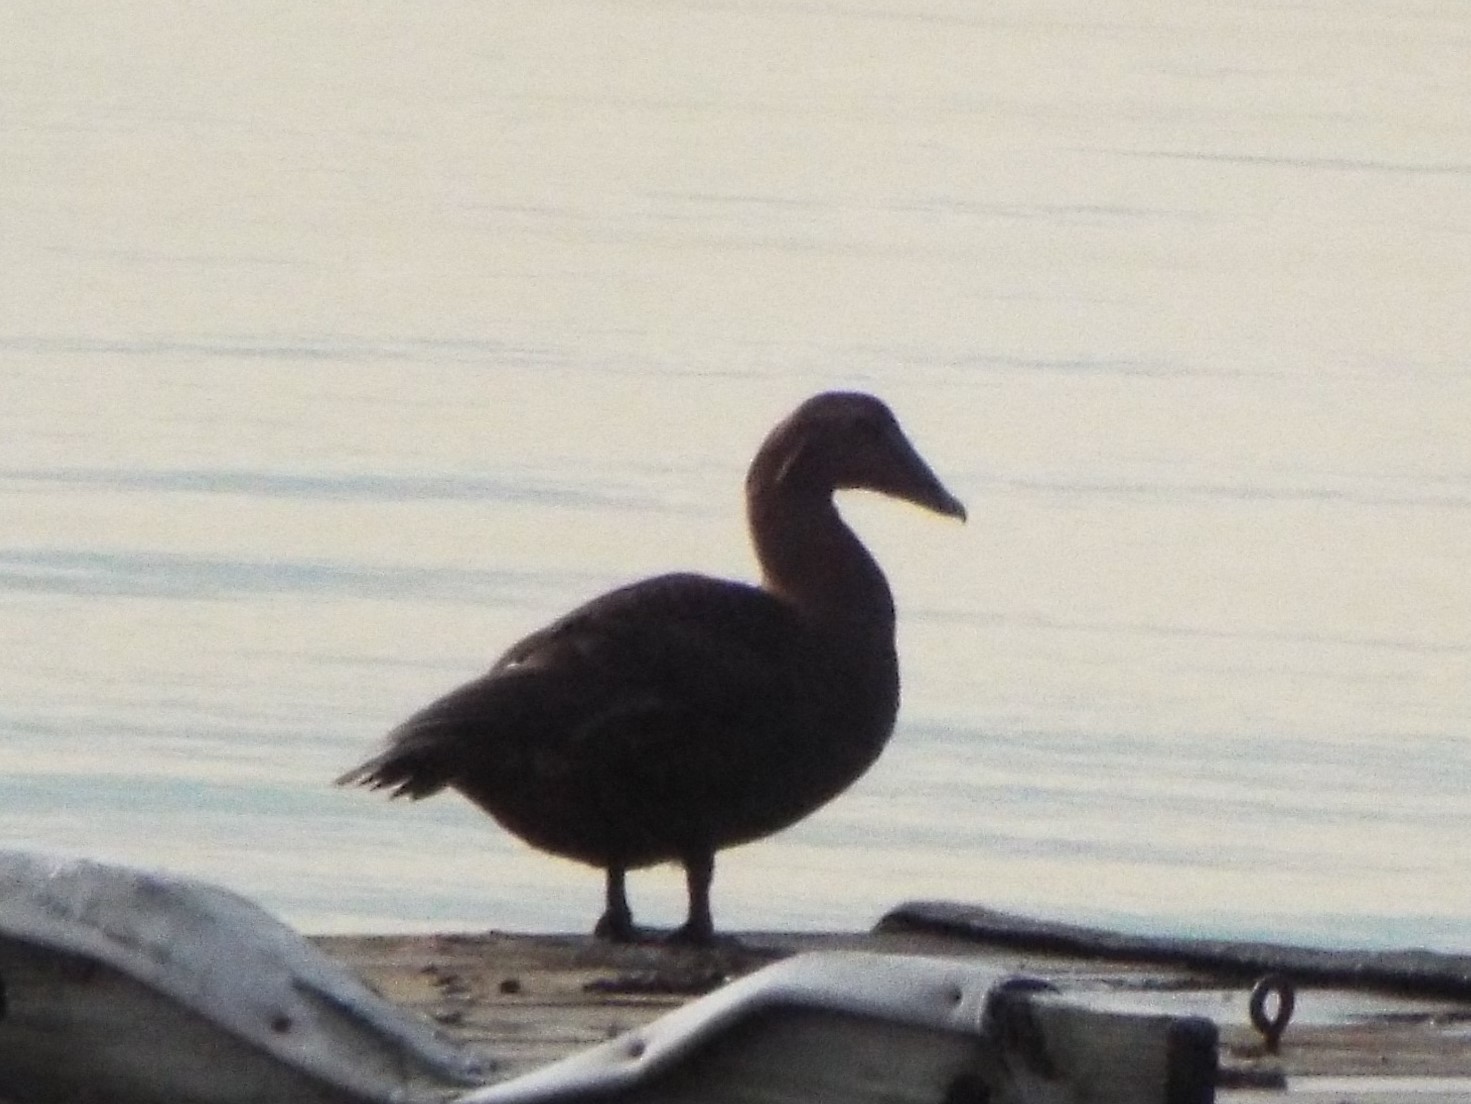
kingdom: Animalia
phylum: Chordata
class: Aves
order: Anseriformes
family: Anatidae
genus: Somateria
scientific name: Somateria mollissima
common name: Common eider
